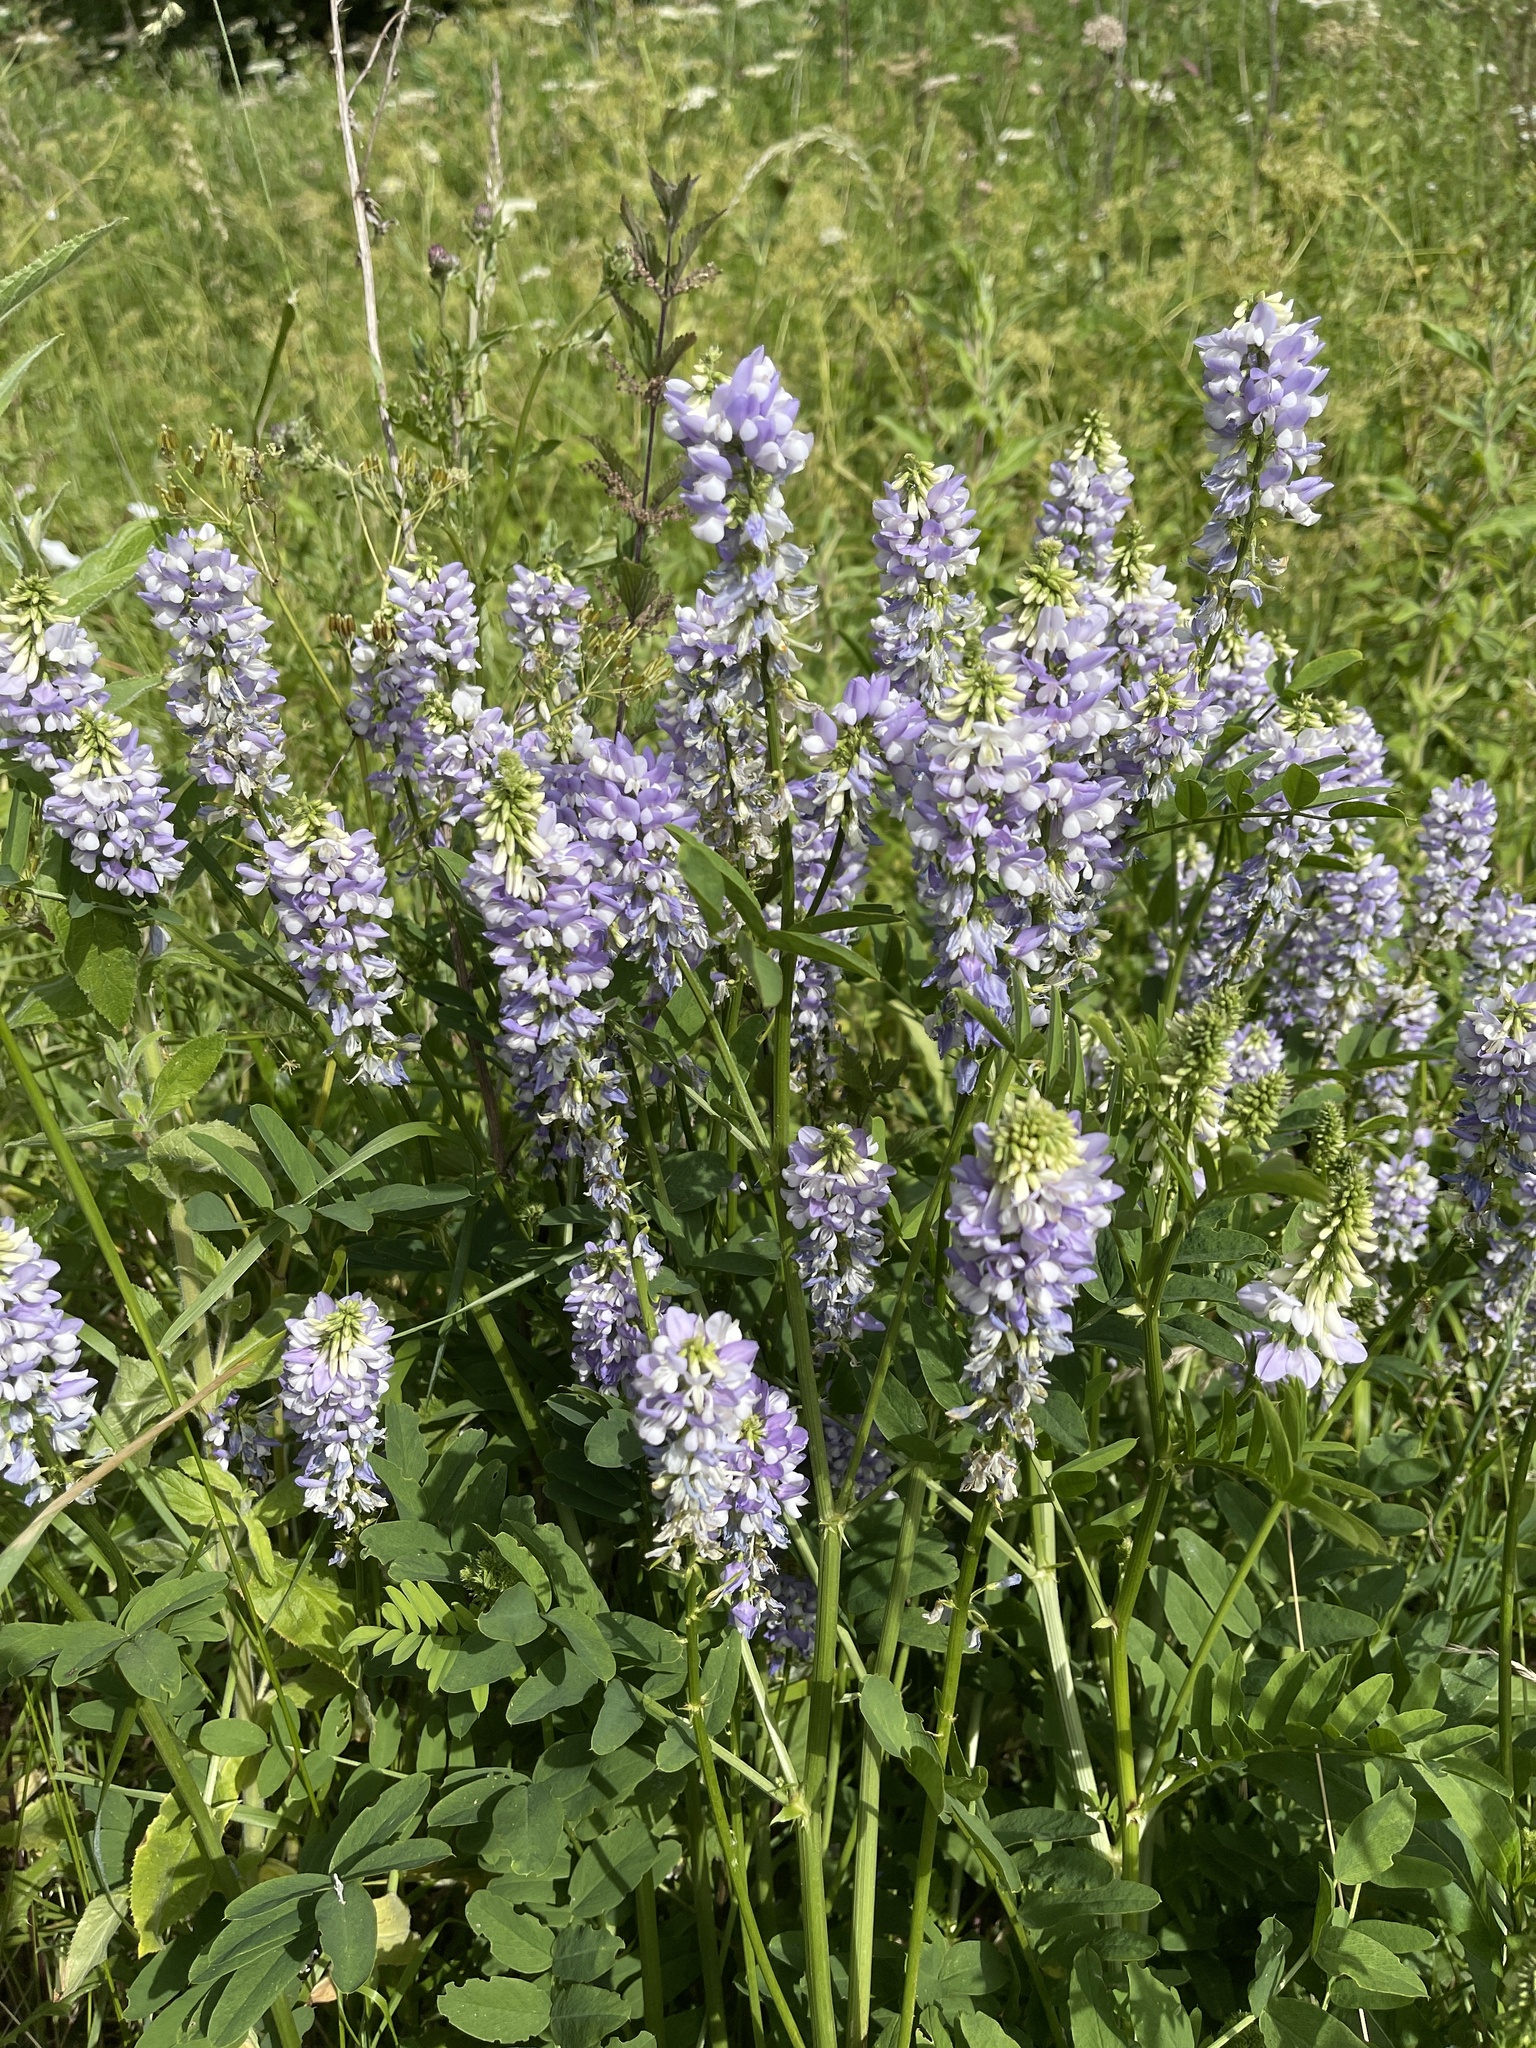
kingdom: Plantae
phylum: Tracheophyta
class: Magnoliopsida
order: Fabales
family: Fabaceae
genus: Galega
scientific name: Galega officinalis
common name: Goat's-rue
